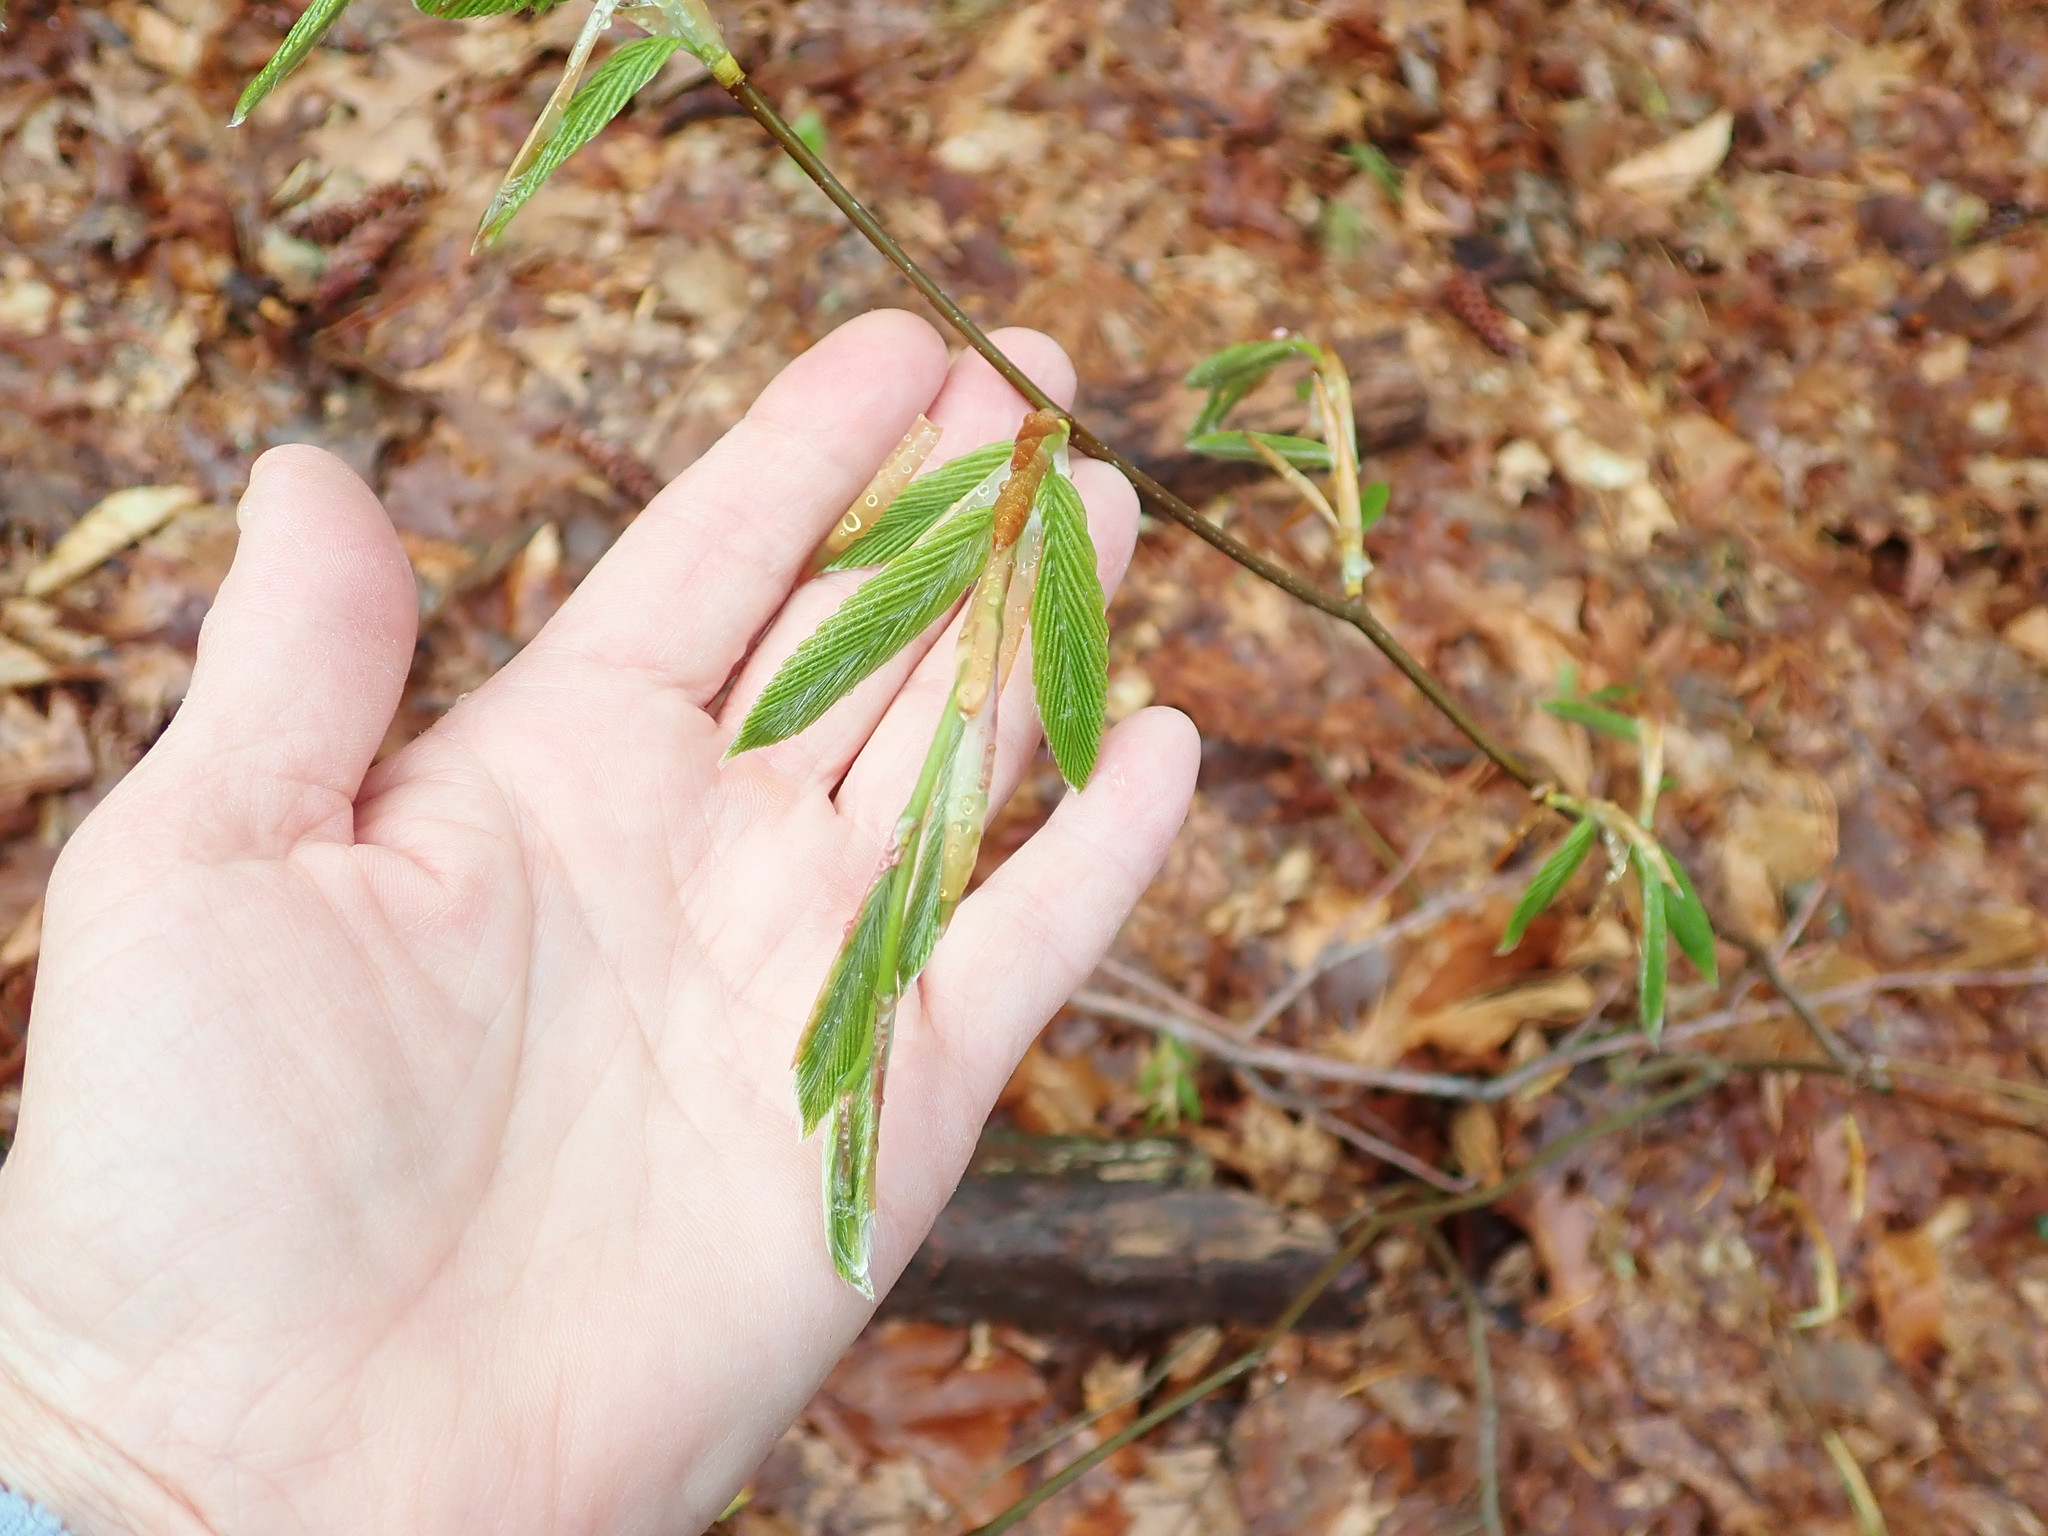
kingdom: Plantae
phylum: Tracheophyta
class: Magnoliopsida
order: Fagales
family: Fagaceae
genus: Fagus
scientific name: Fagus grandifolia
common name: American beech
